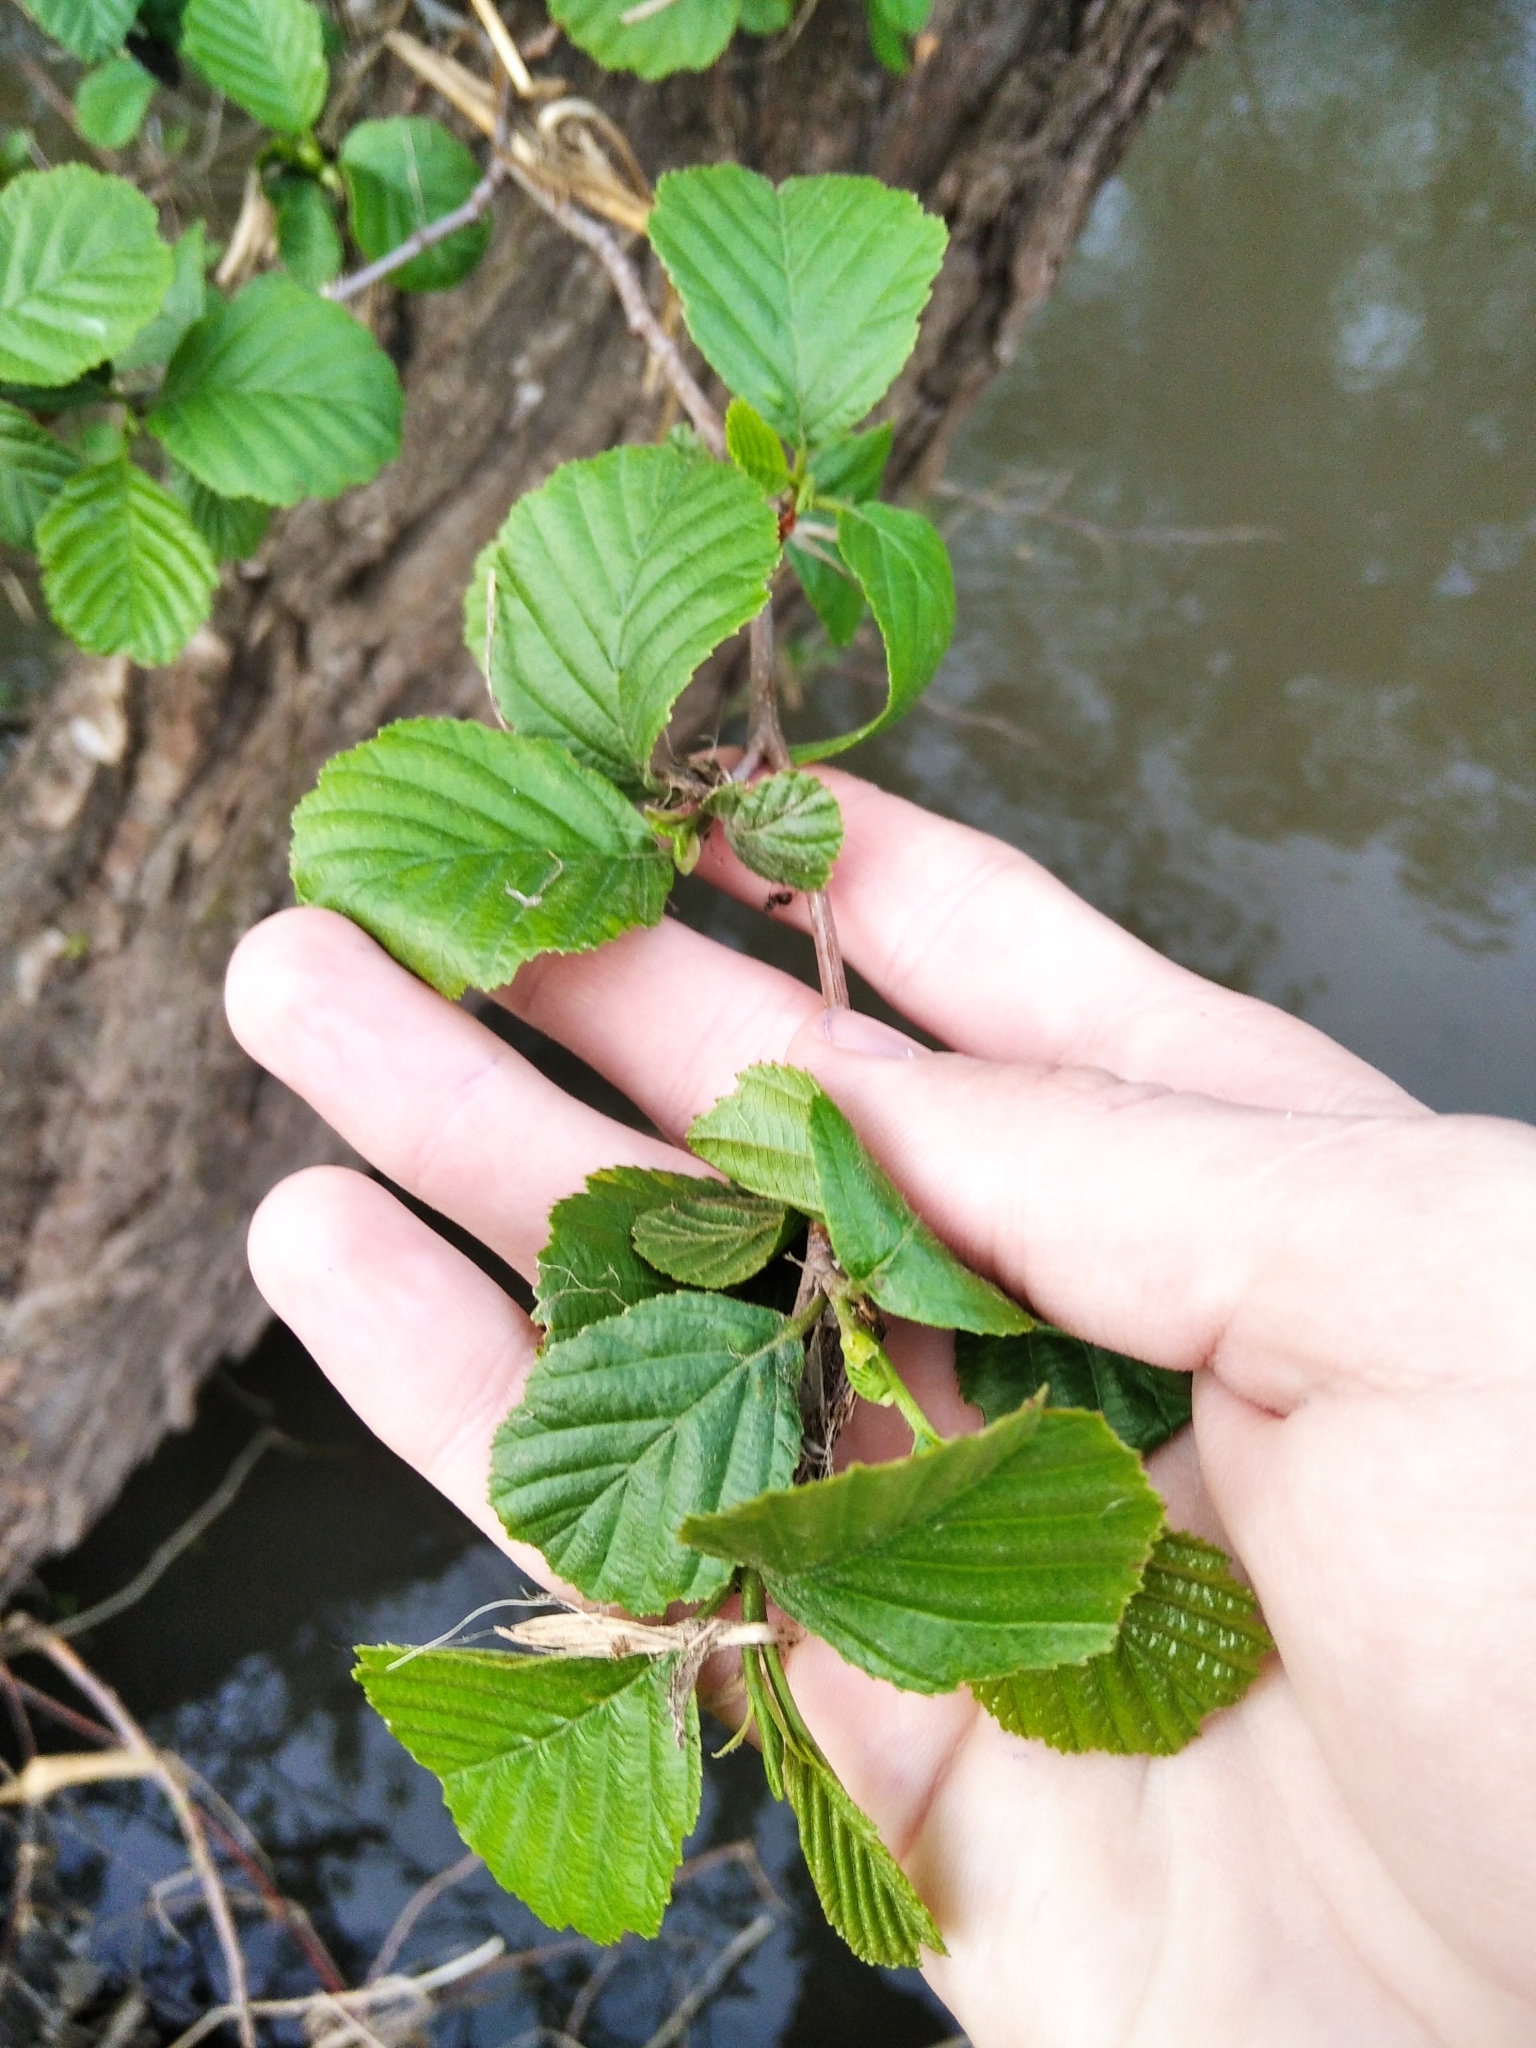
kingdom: Plantae
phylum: Tracheophyta
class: Magnoliopsida
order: Fagales
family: Betulaceae
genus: Alnus
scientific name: Alnus glutinosa
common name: Black alder
